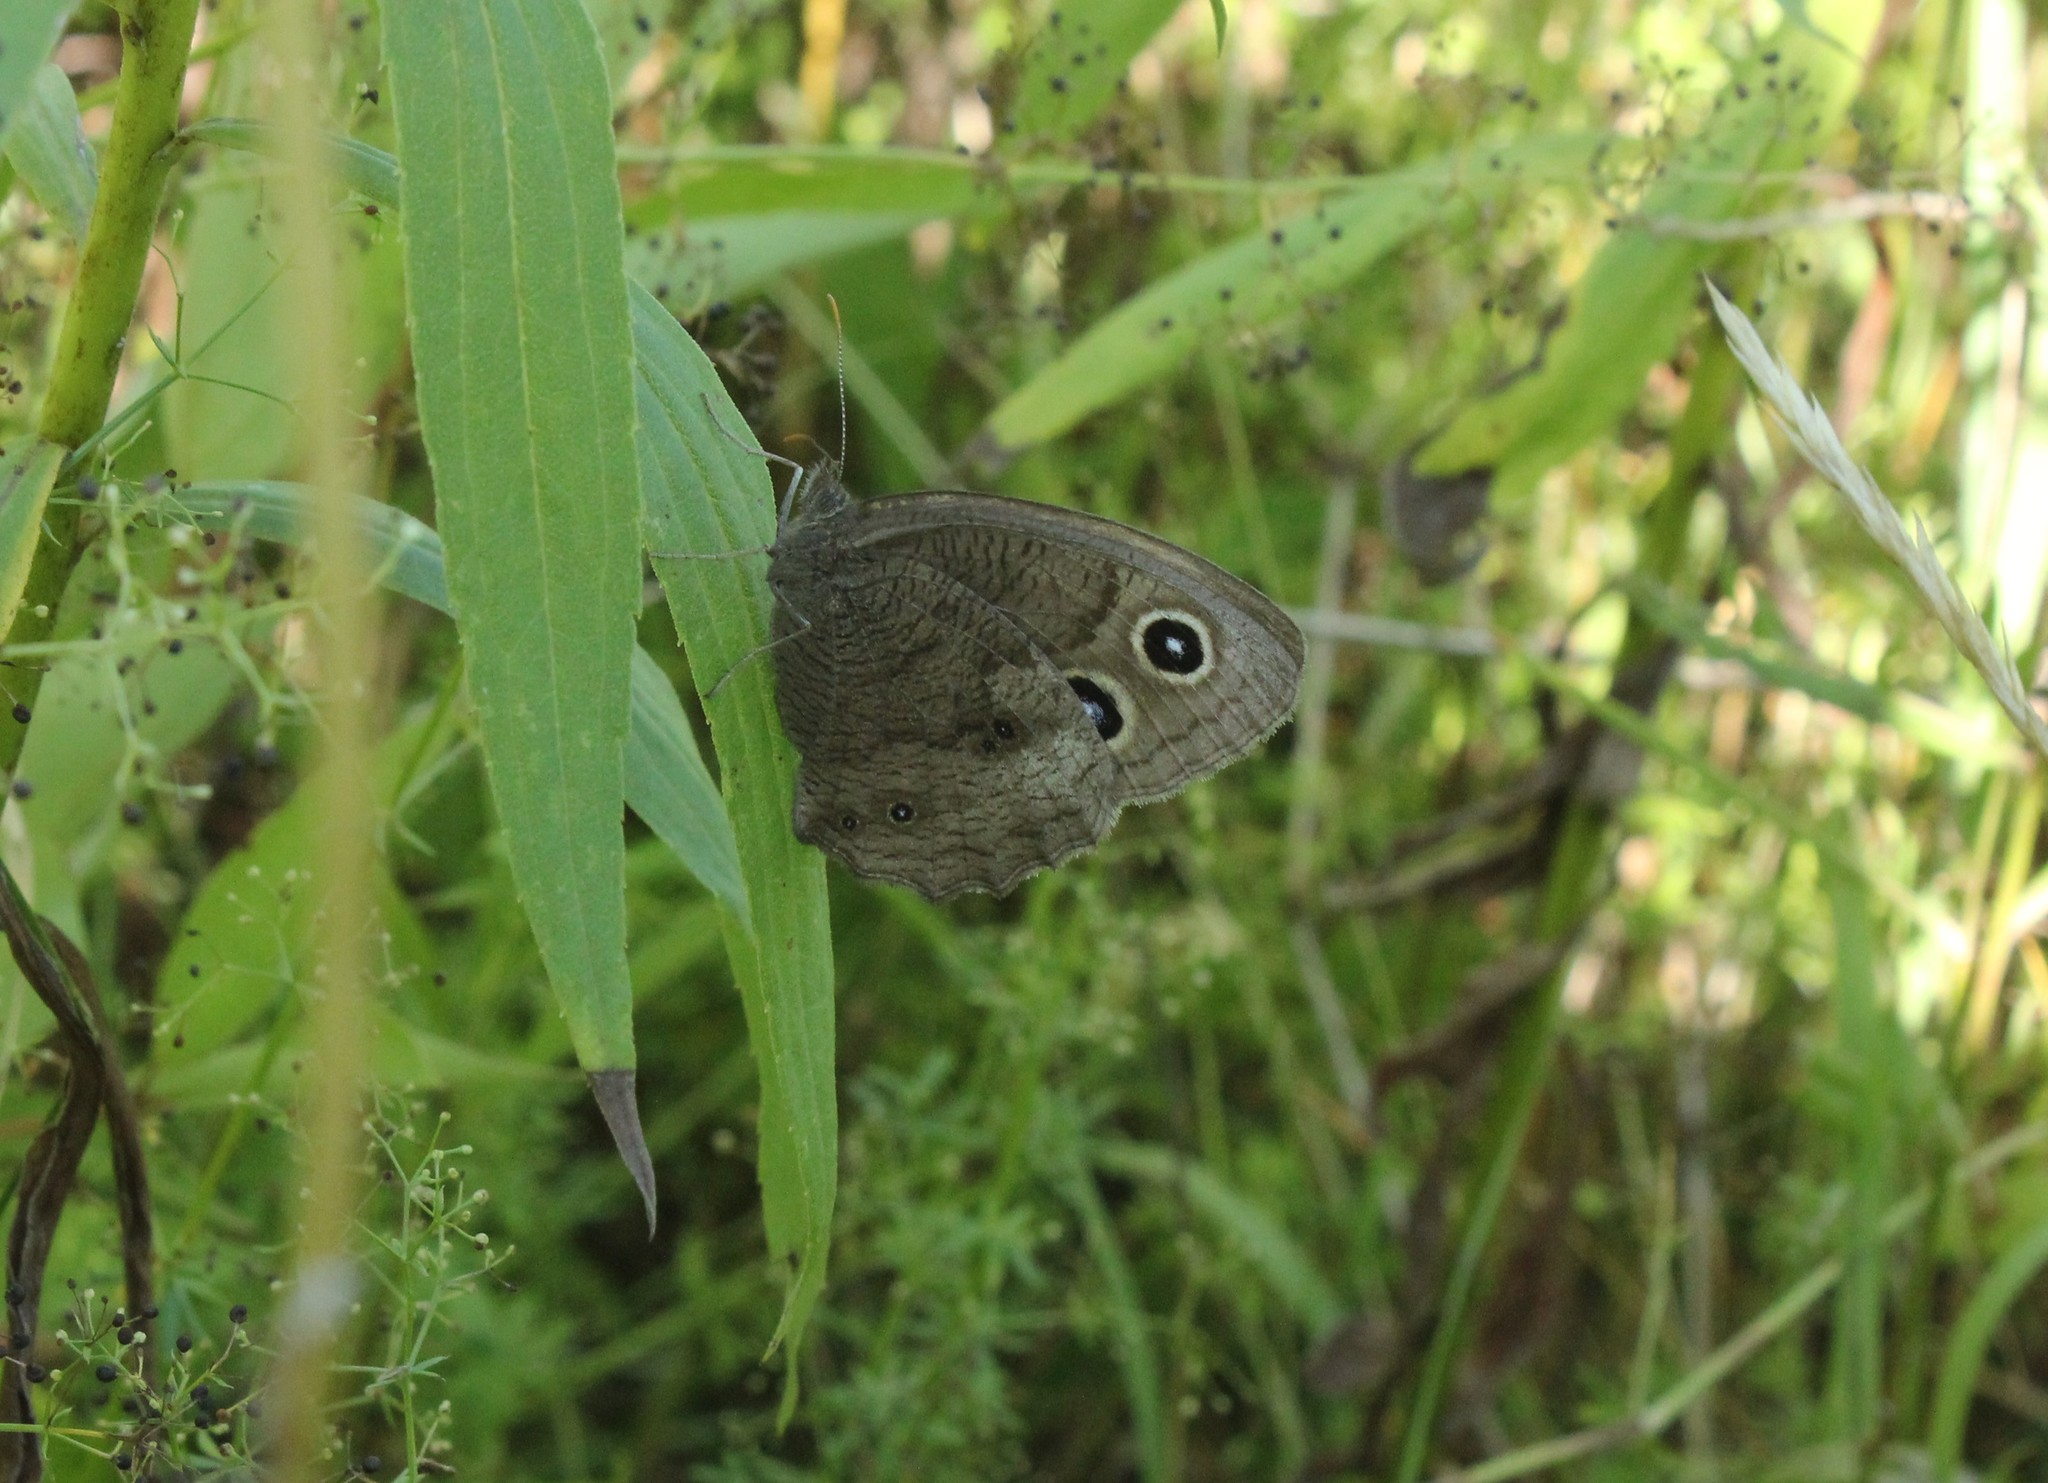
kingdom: Animalia
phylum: Arthropoda
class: Insecta
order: Lepidoptera
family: Nymphalidae
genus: Cercyonis
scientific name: Cercyonis pegala
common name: Common wood-nymph
